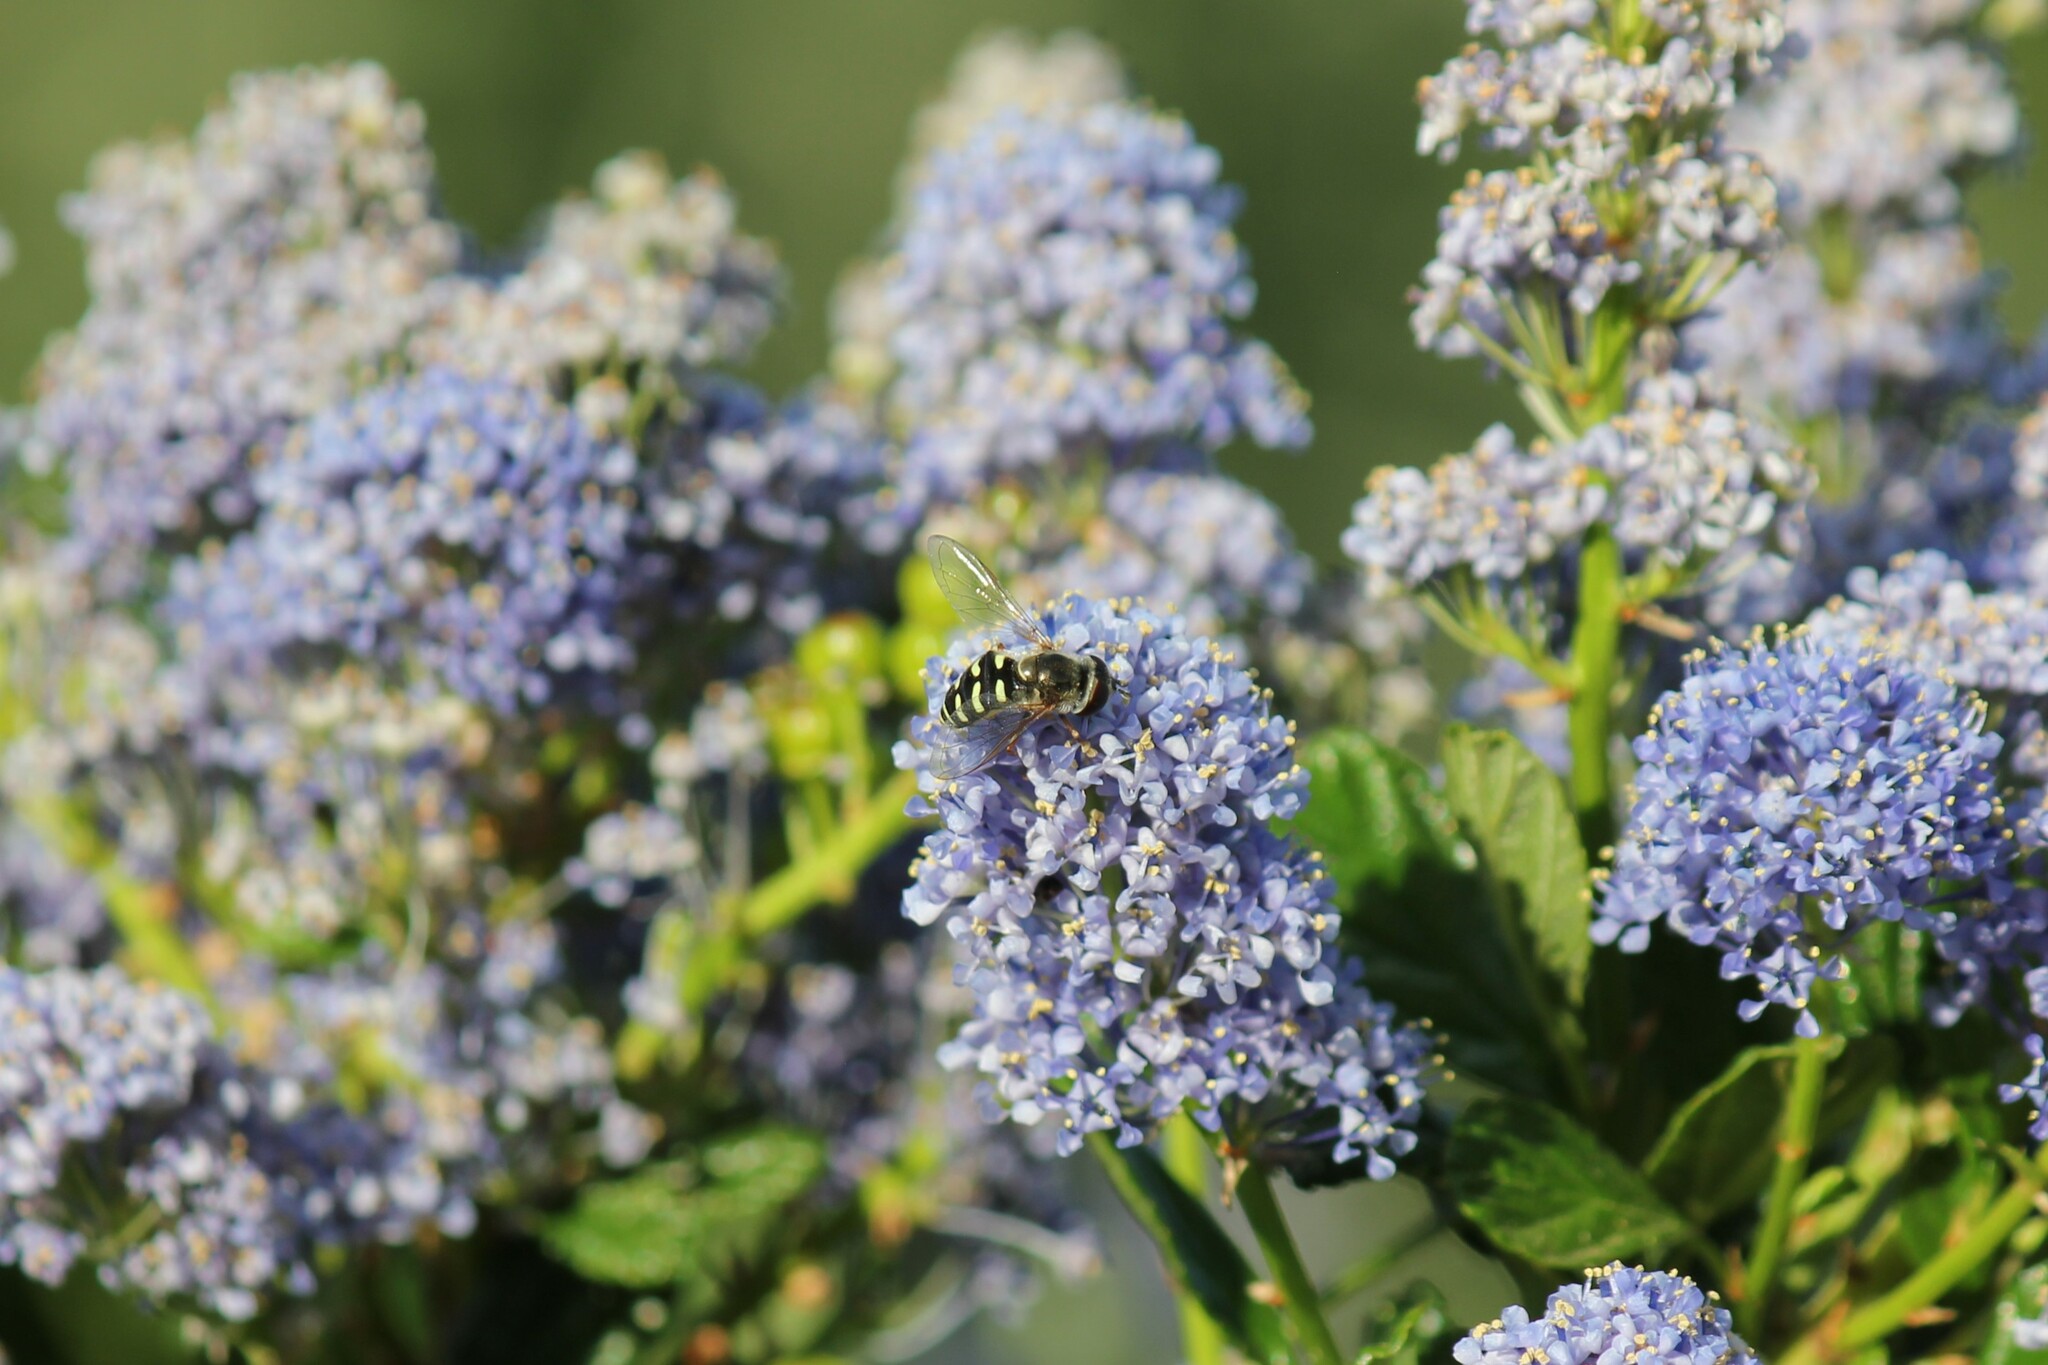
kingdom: Animalia
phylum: Arthropoda
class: Insecta
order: Diptera
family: Syrphidae
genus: Eupeodes
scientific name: Eupeodes volucris
